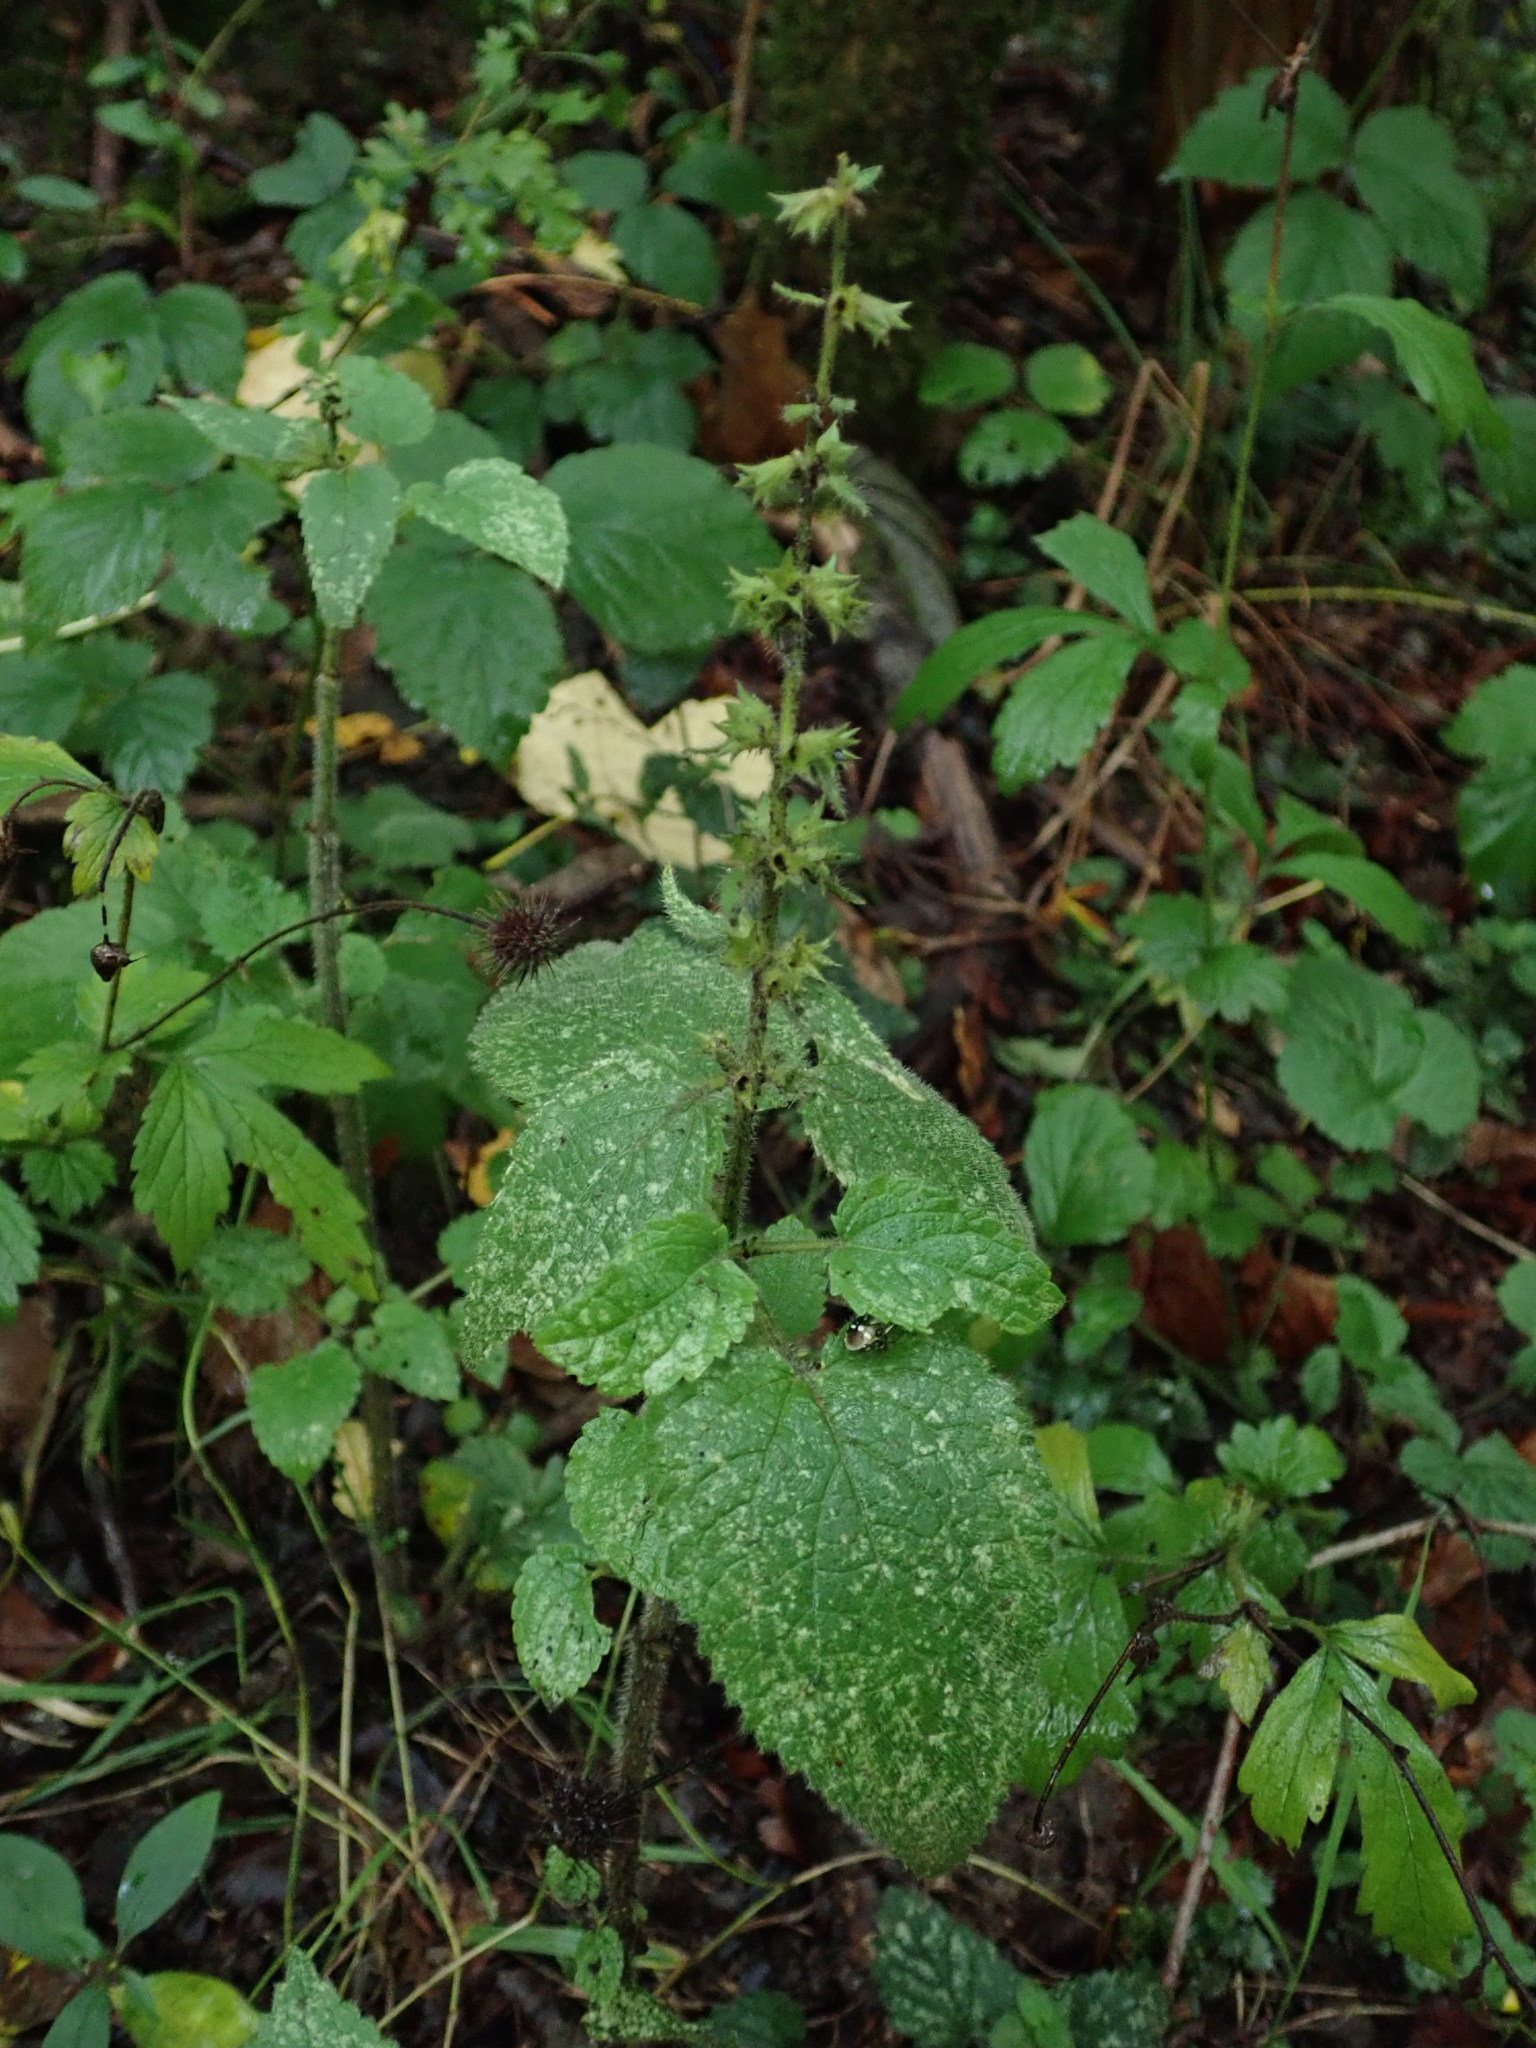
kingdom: Plantae
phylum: Tracheophyta
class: Magnoliopsida
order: Lamiales
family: Lamiaceae
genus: Stachys
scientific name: Stachys sylvatica
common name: Hedge woundwort
